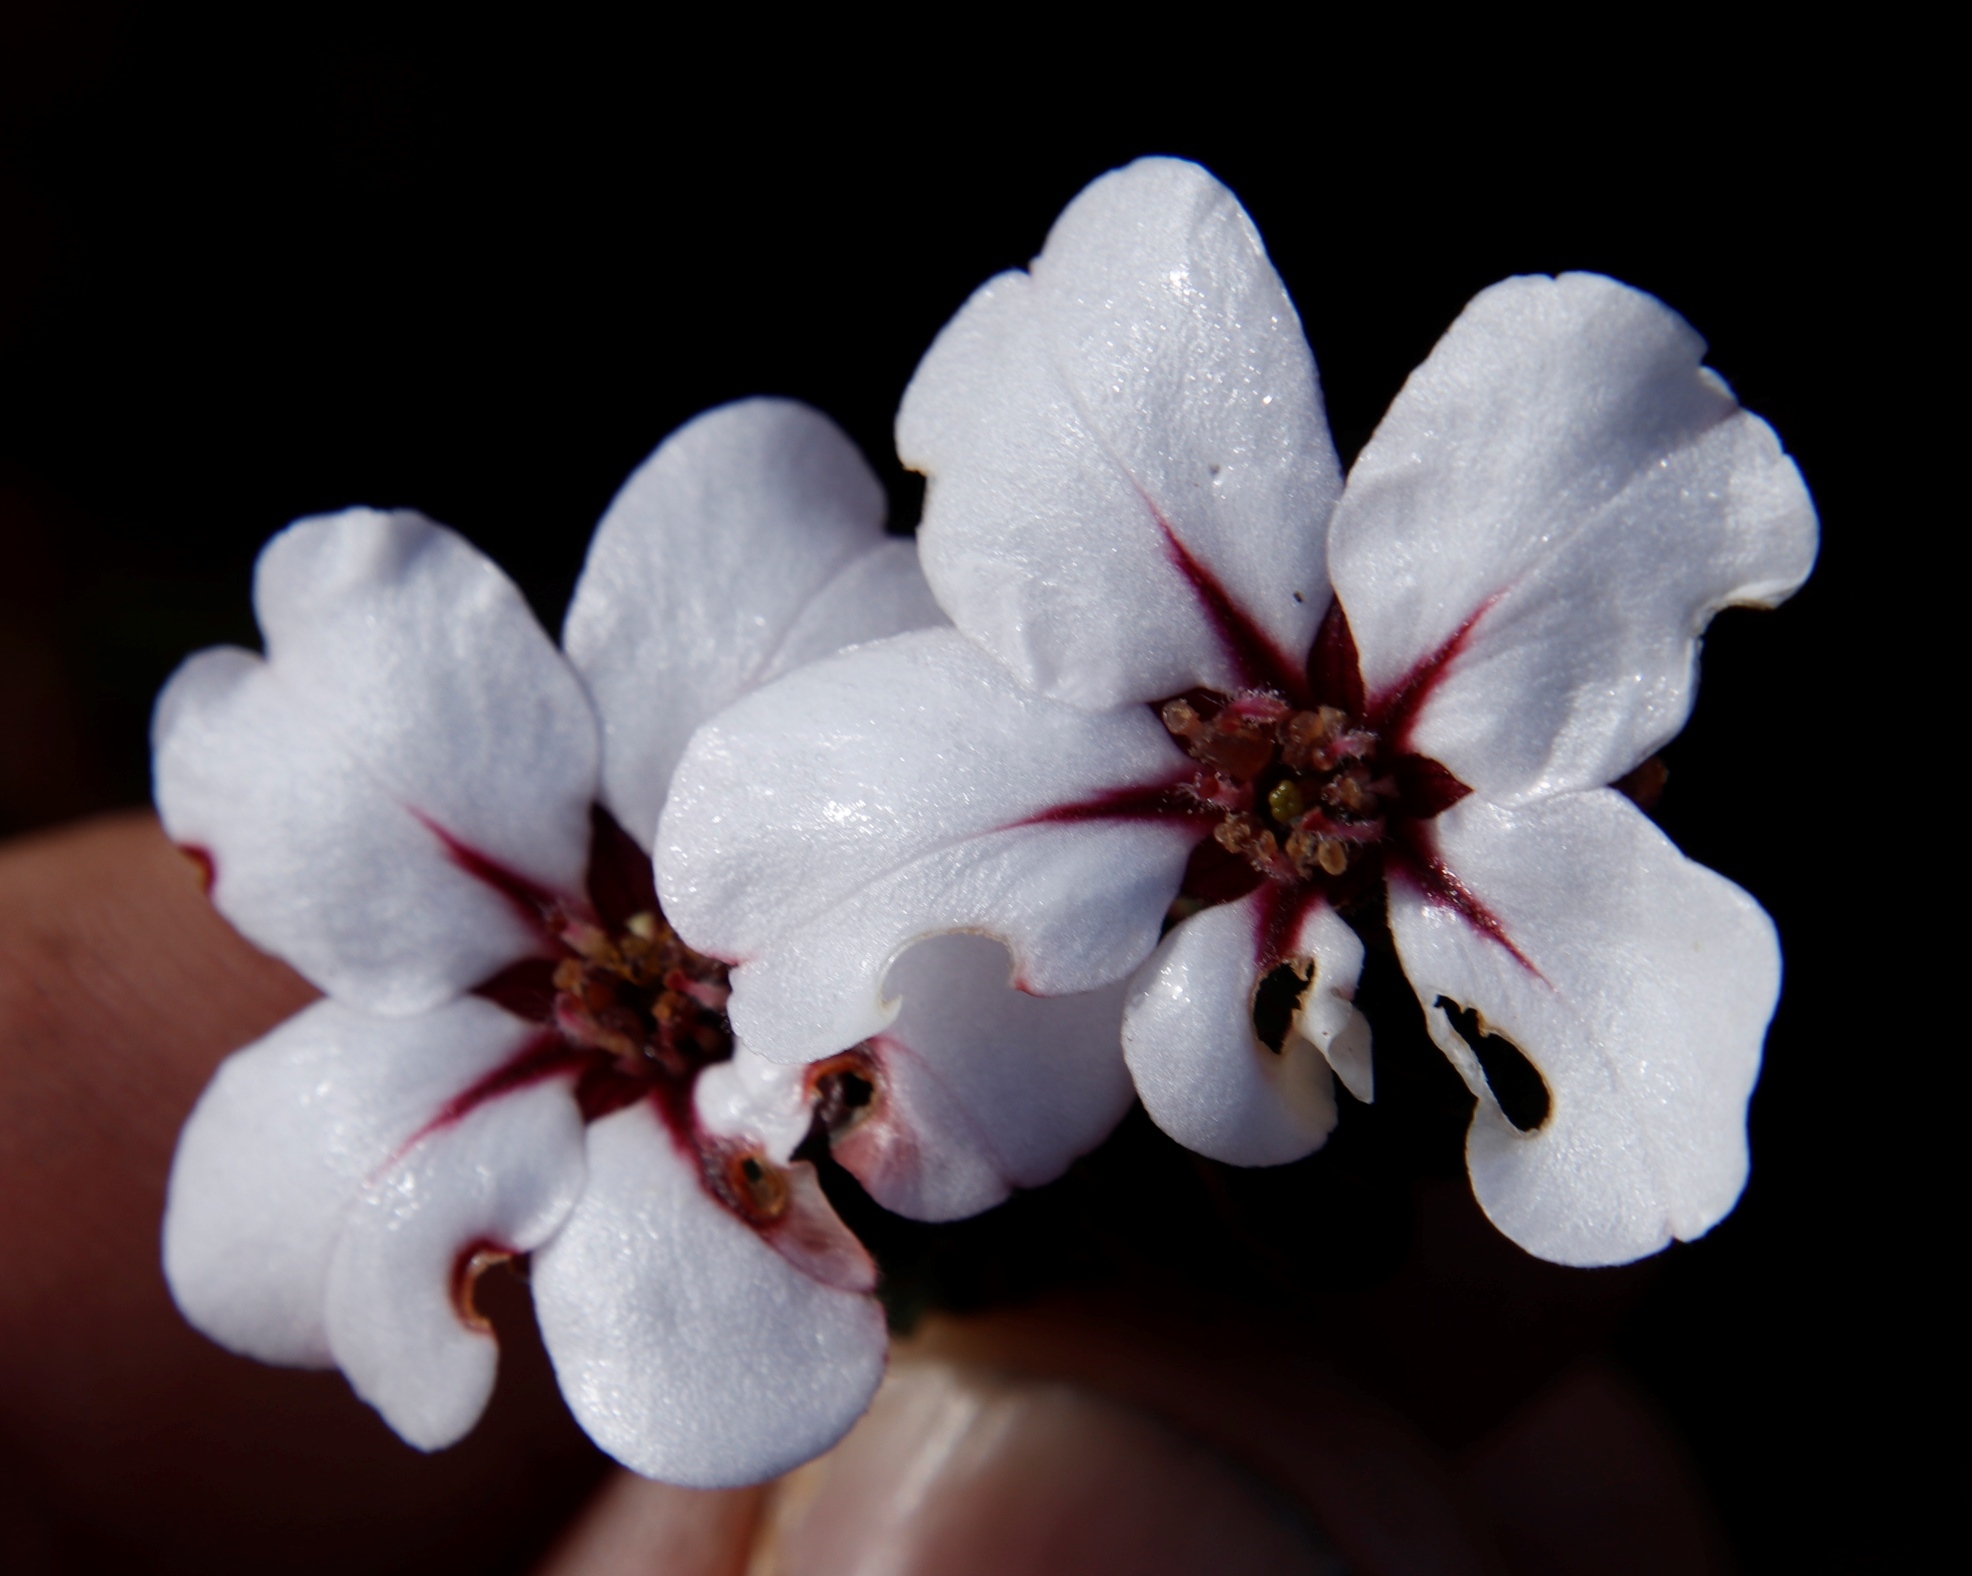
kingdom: Plantae
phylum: Tracheophyta
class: Magnoliopsida
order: Sapindales
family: Rutaceae
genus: Adenandra
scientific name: Adenandra villosa
